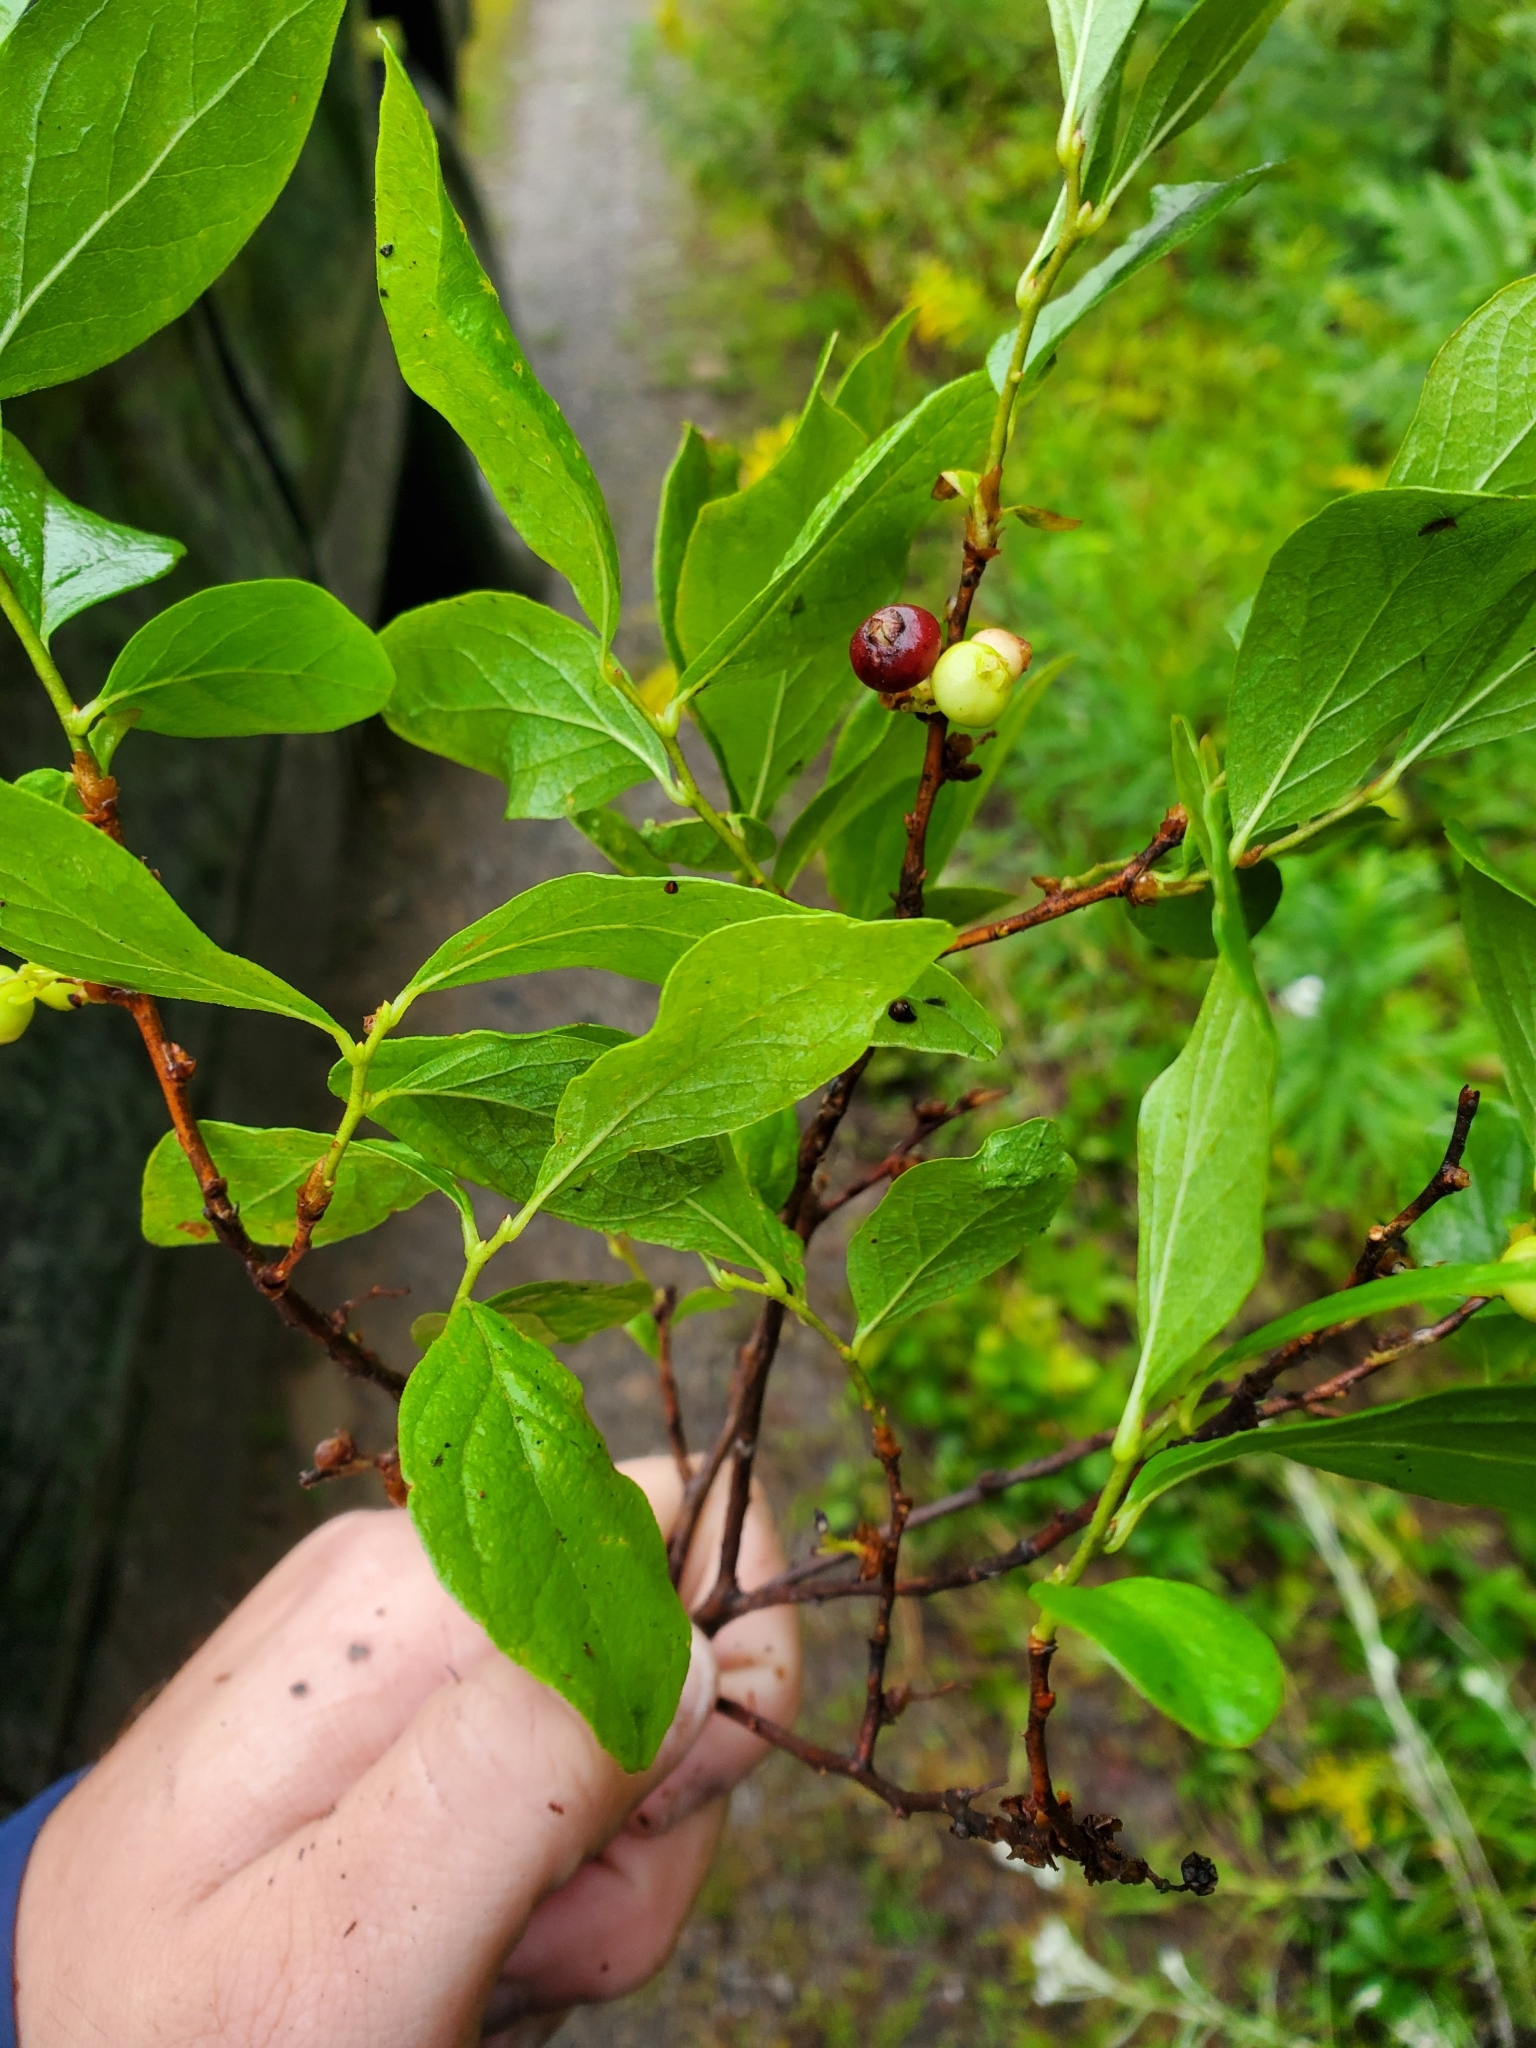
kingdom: Plantae
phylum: Tracheophyta
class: Magnoliopsida
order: Ericales
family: Ericaceae
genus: Gaylussacia
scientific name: Gaylussacia baccata
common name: Black huckleberry
